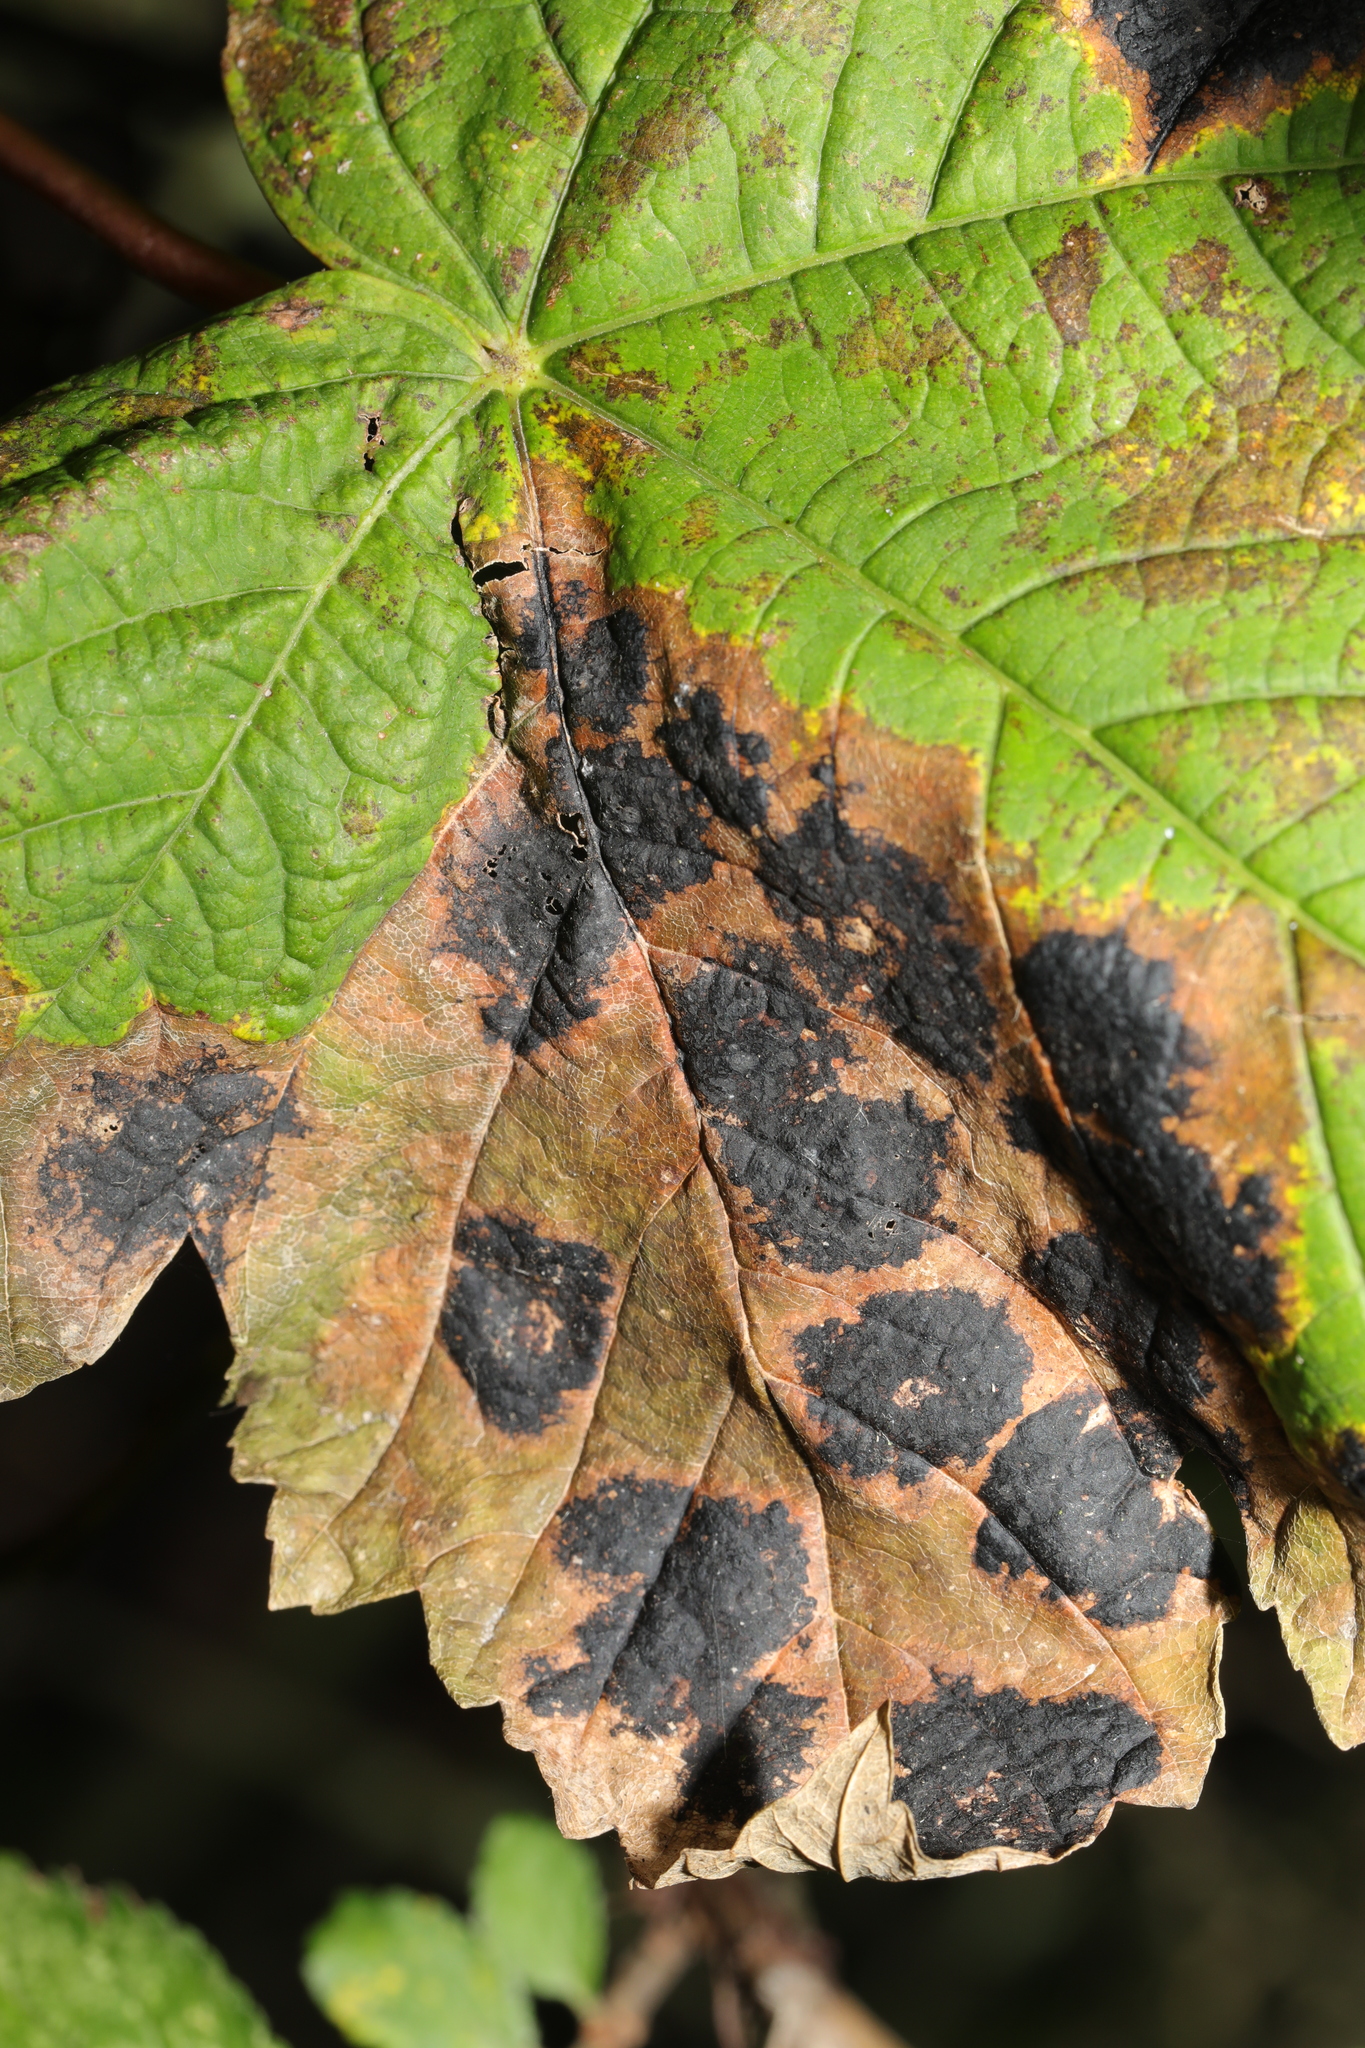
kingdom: Fungi
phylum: Ascomycota
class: Leotiomycetes
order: Rhytismatales
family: Rhytismataceae
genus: Rhytisma
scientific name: Rhytisma acerinum
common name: European tar spot
